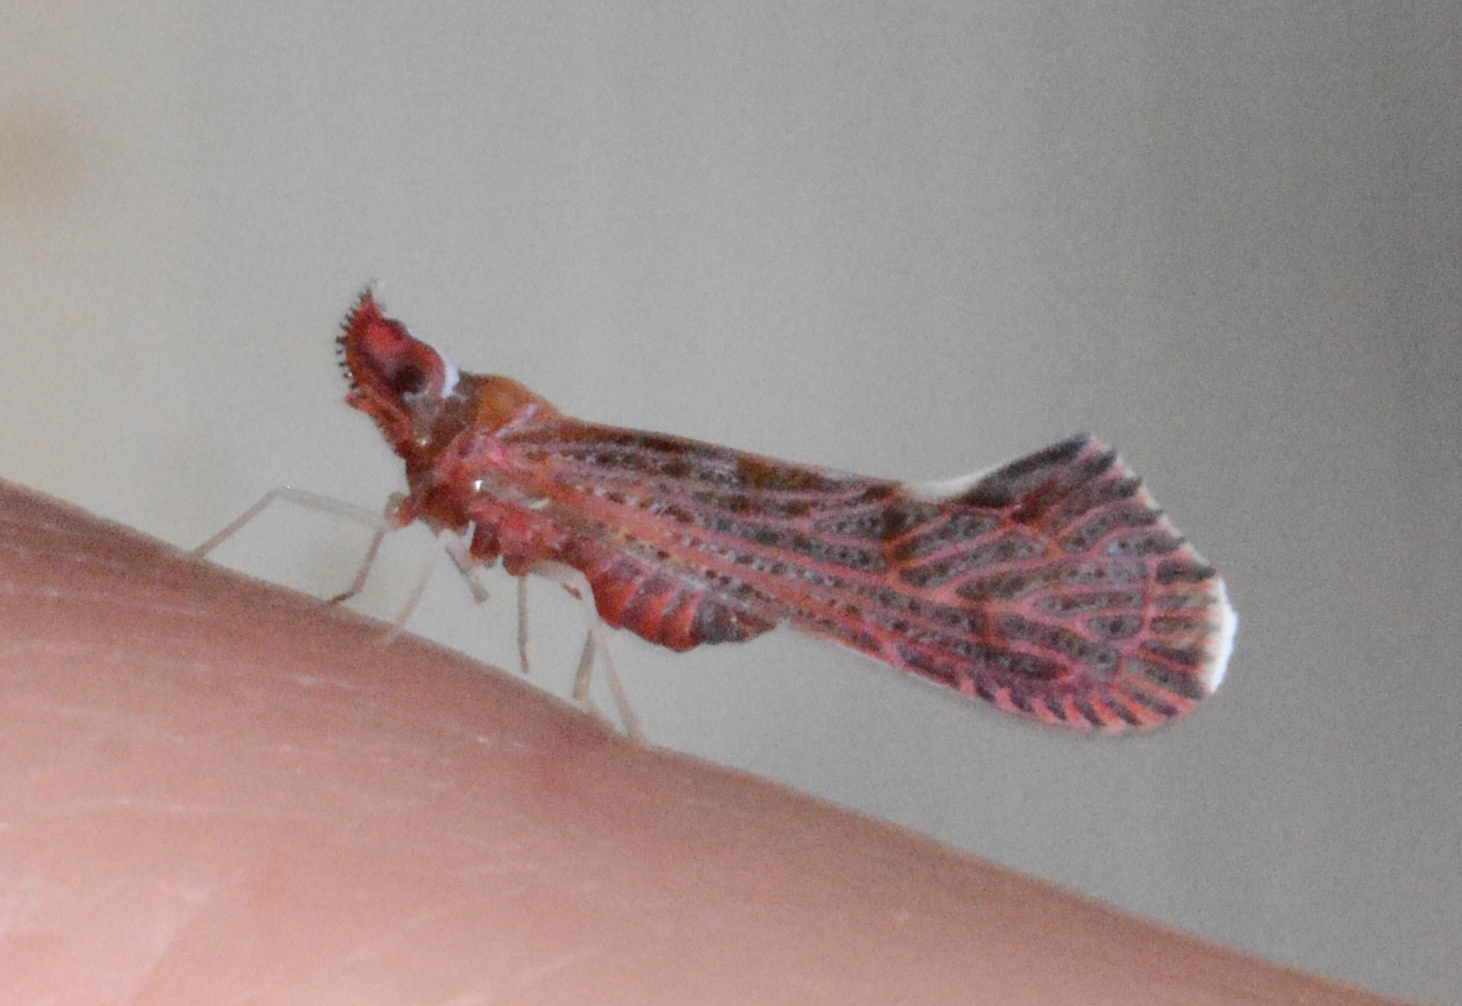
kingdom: Animalia
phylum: Arthropoda
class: Insecta
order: Hemiptera
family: Derbidae
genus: Apache
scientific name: Apache degeeri
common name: Red-fanned planthopper
